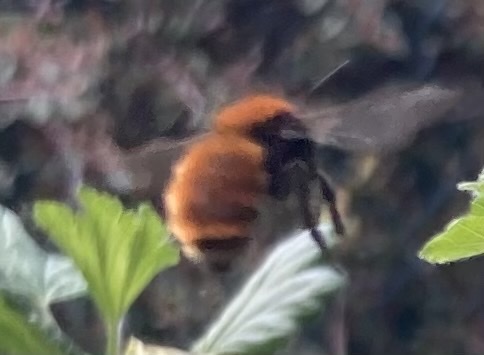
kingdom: Animalia
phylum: Arthropoda
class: Insecta
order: Hymenoptera
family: Andrenidae
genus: Andrena
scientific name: Andrena fulva
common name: Tawny mining bee
